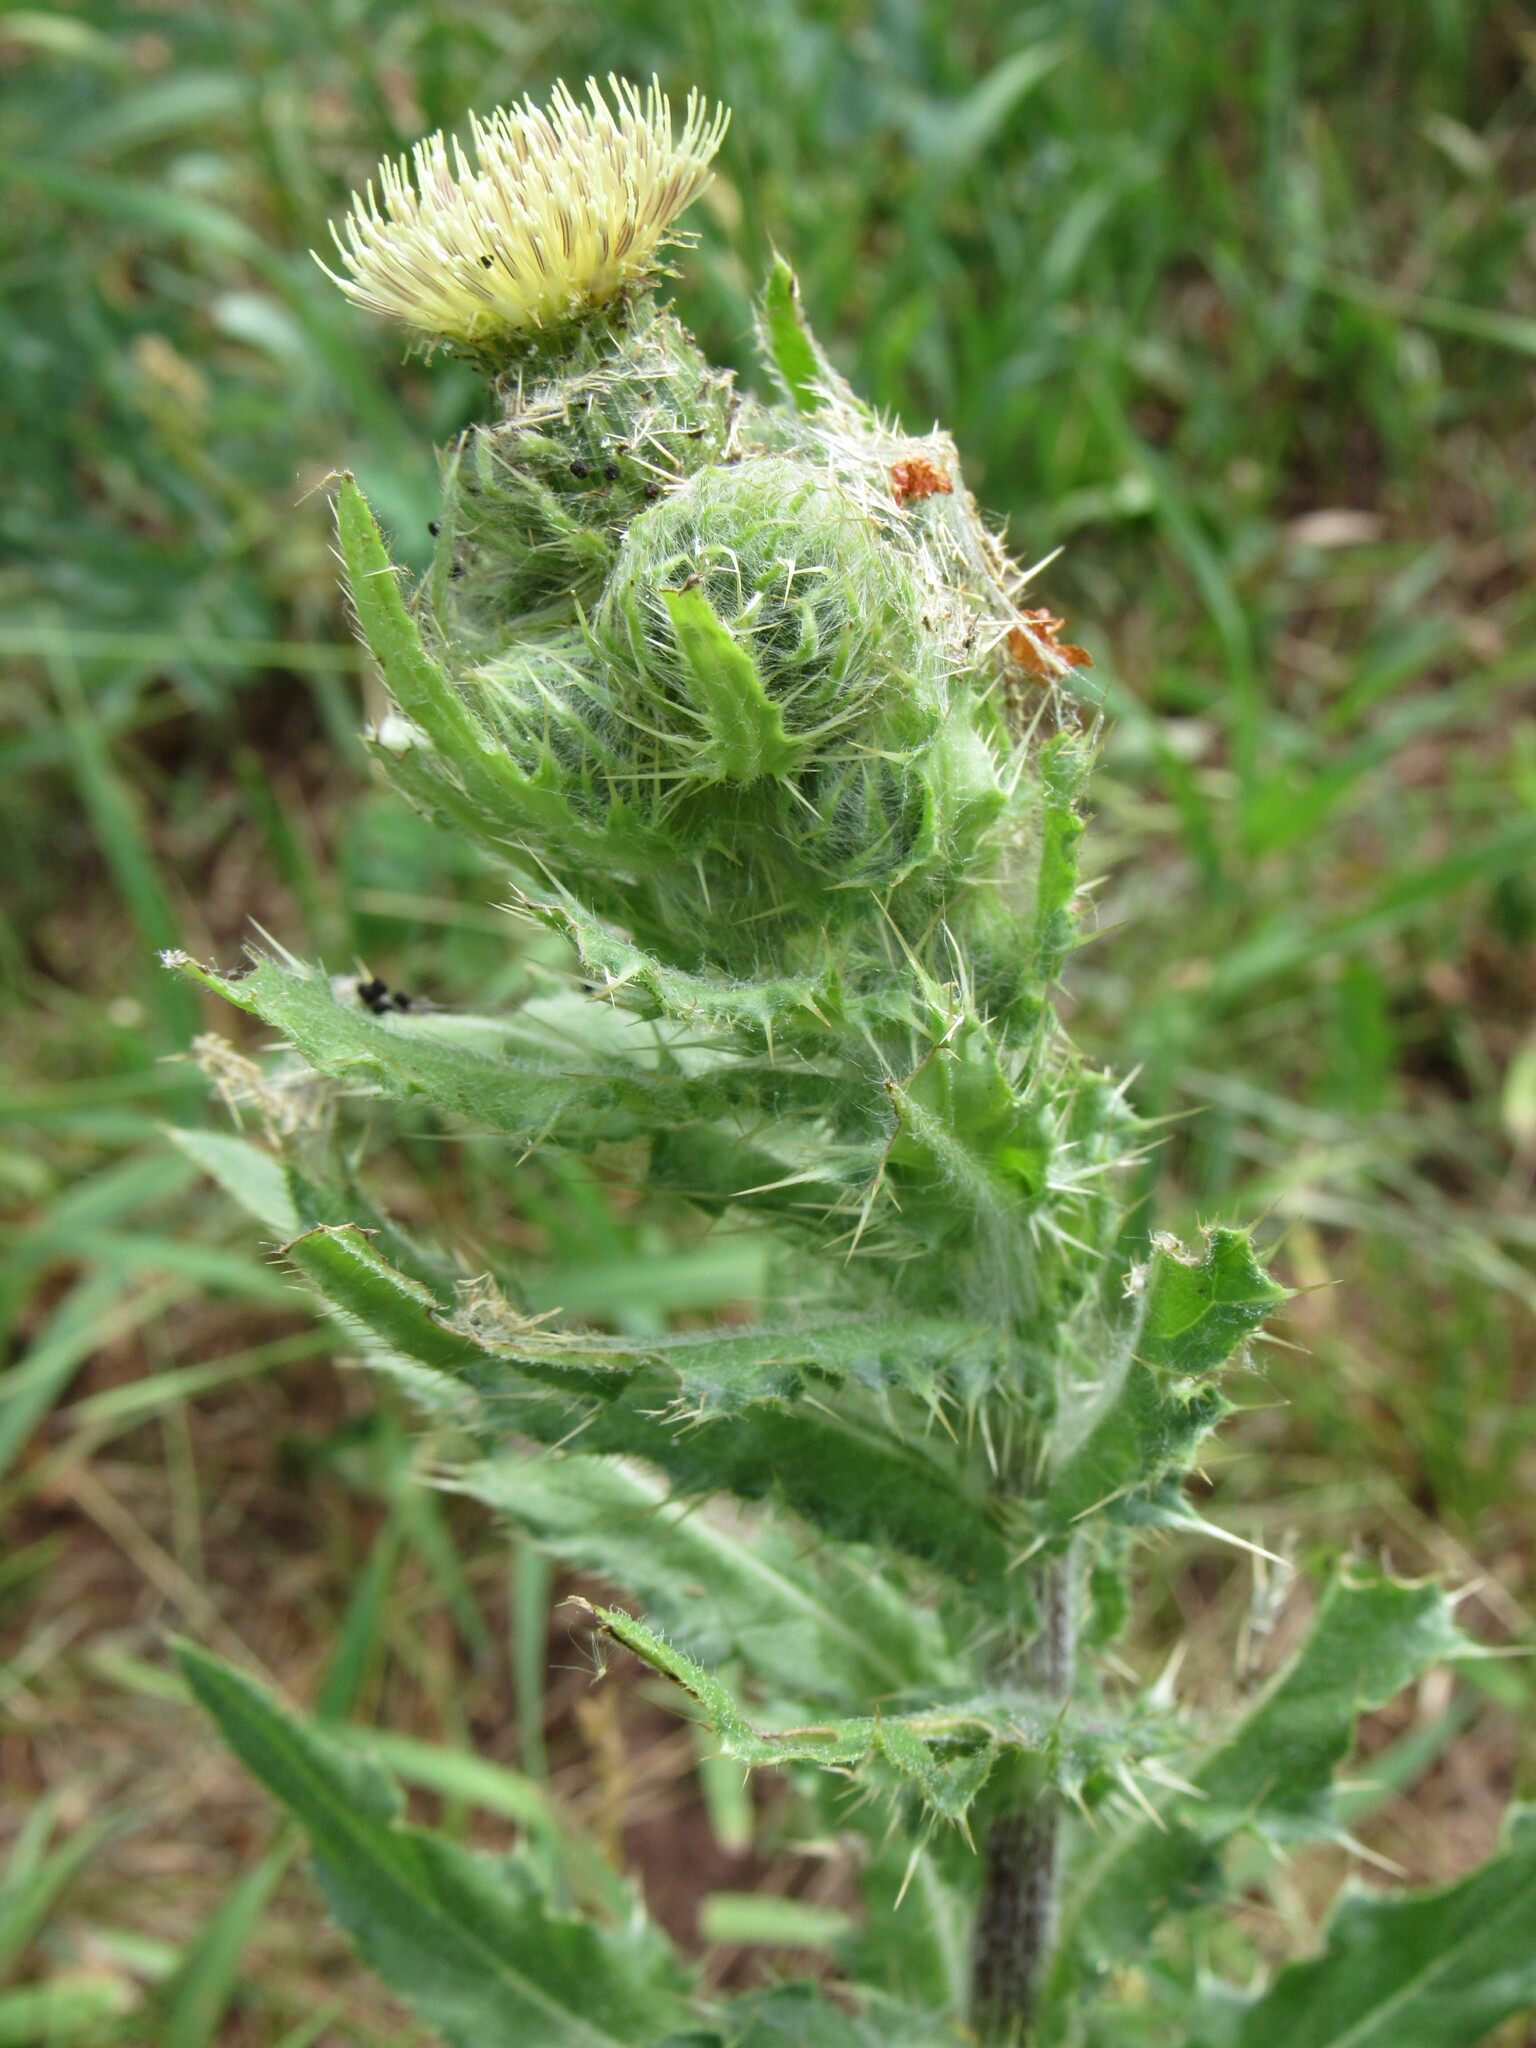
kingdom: Plantae
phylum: Tracheophyta
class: Magnoliopsida
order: Asterales
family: Asteraceae
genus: Cirsium
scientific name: Cirsium parryi
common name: Parry's thistle
